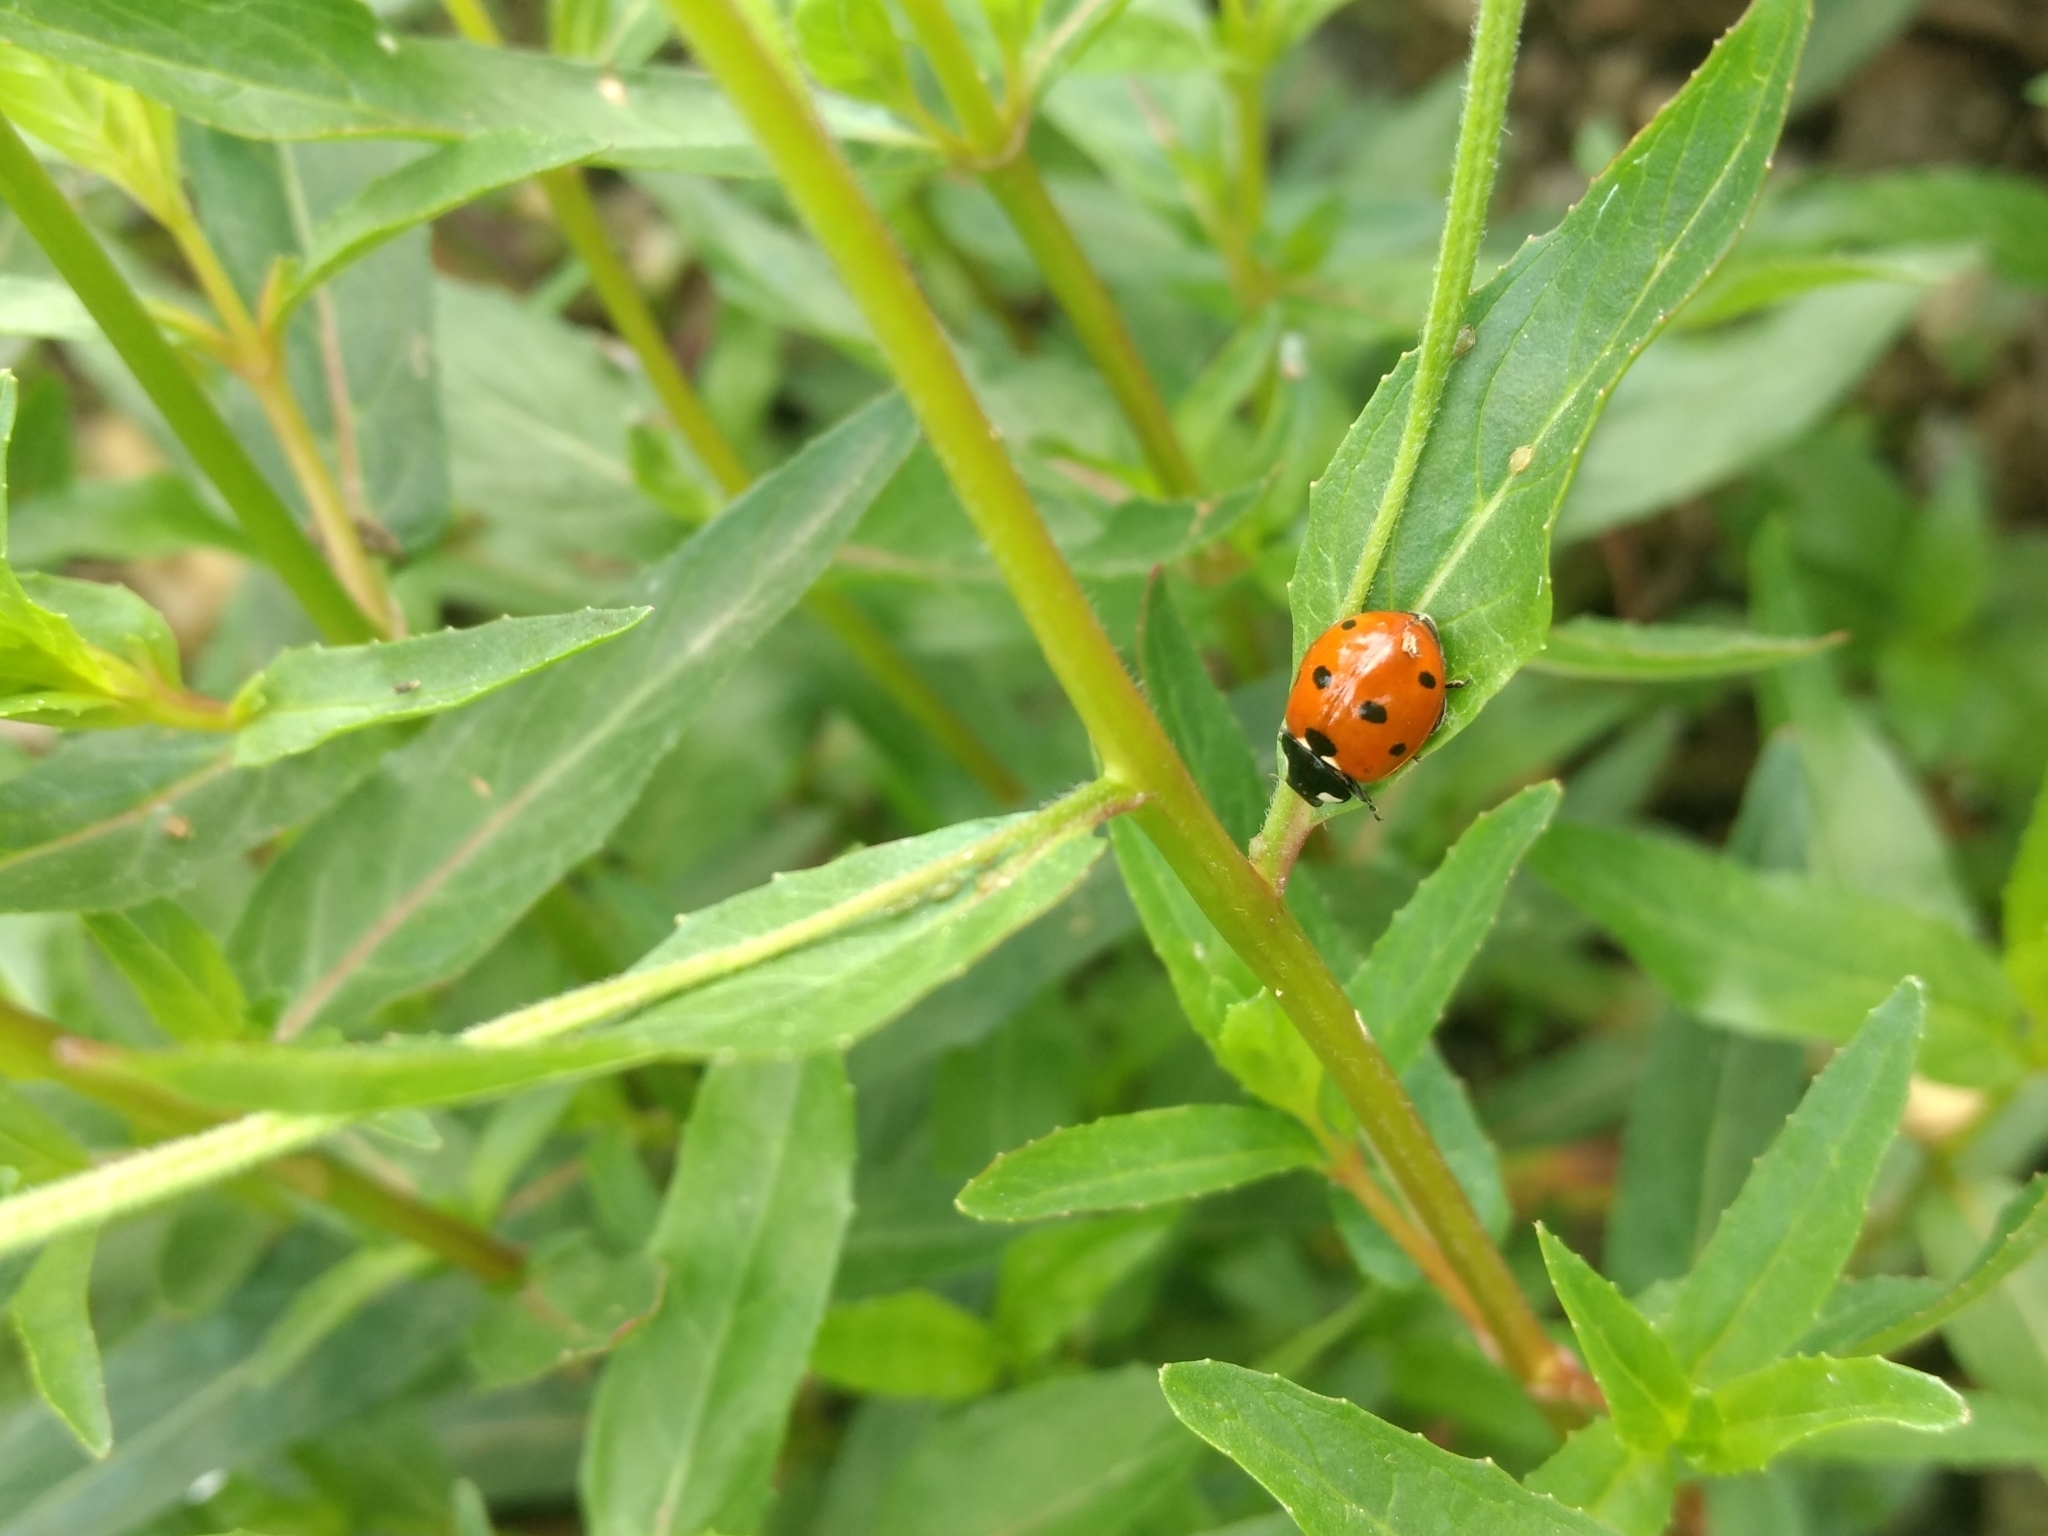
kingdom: Animalia
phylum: Arthropoda
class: Insecta
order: Coleoptera
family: Coccinellidae
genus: Coccinella
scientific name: Coccinella septempunctata
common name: Sevenspotted lady beetle
